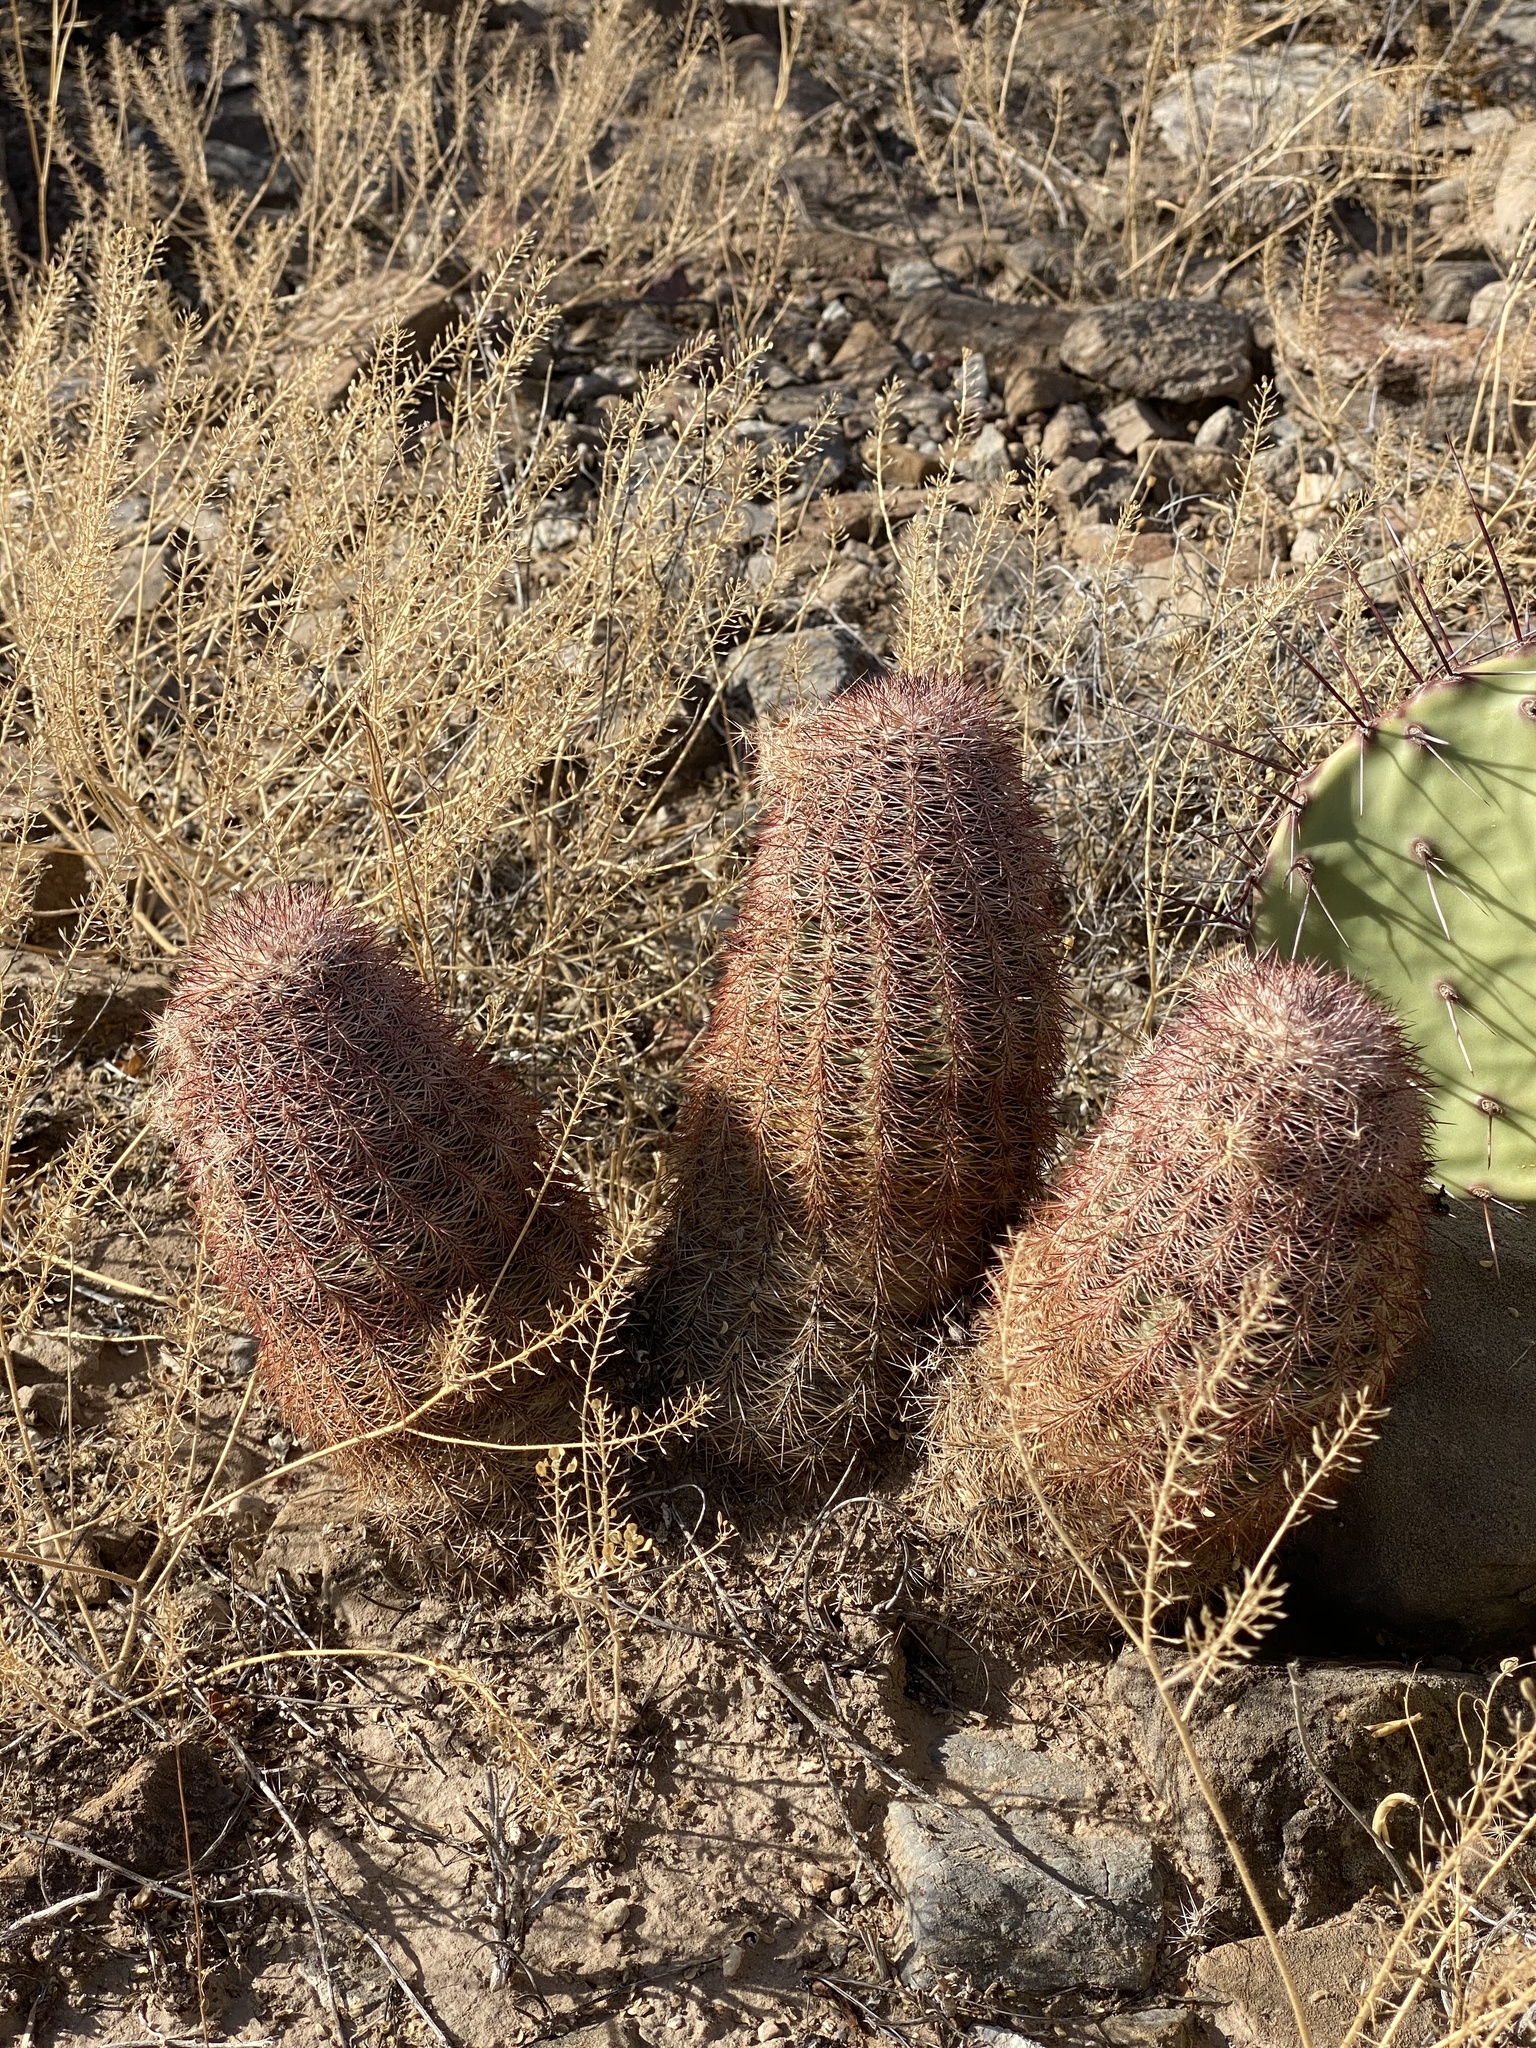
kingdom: Plantae
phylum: Tracheophyta
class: Magnoliopsida
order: Caryophyllales
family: Cactaceae
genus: Echinocereus
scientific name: Echinocereus dasyacanthus
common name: Spiny hedgehog cactus
